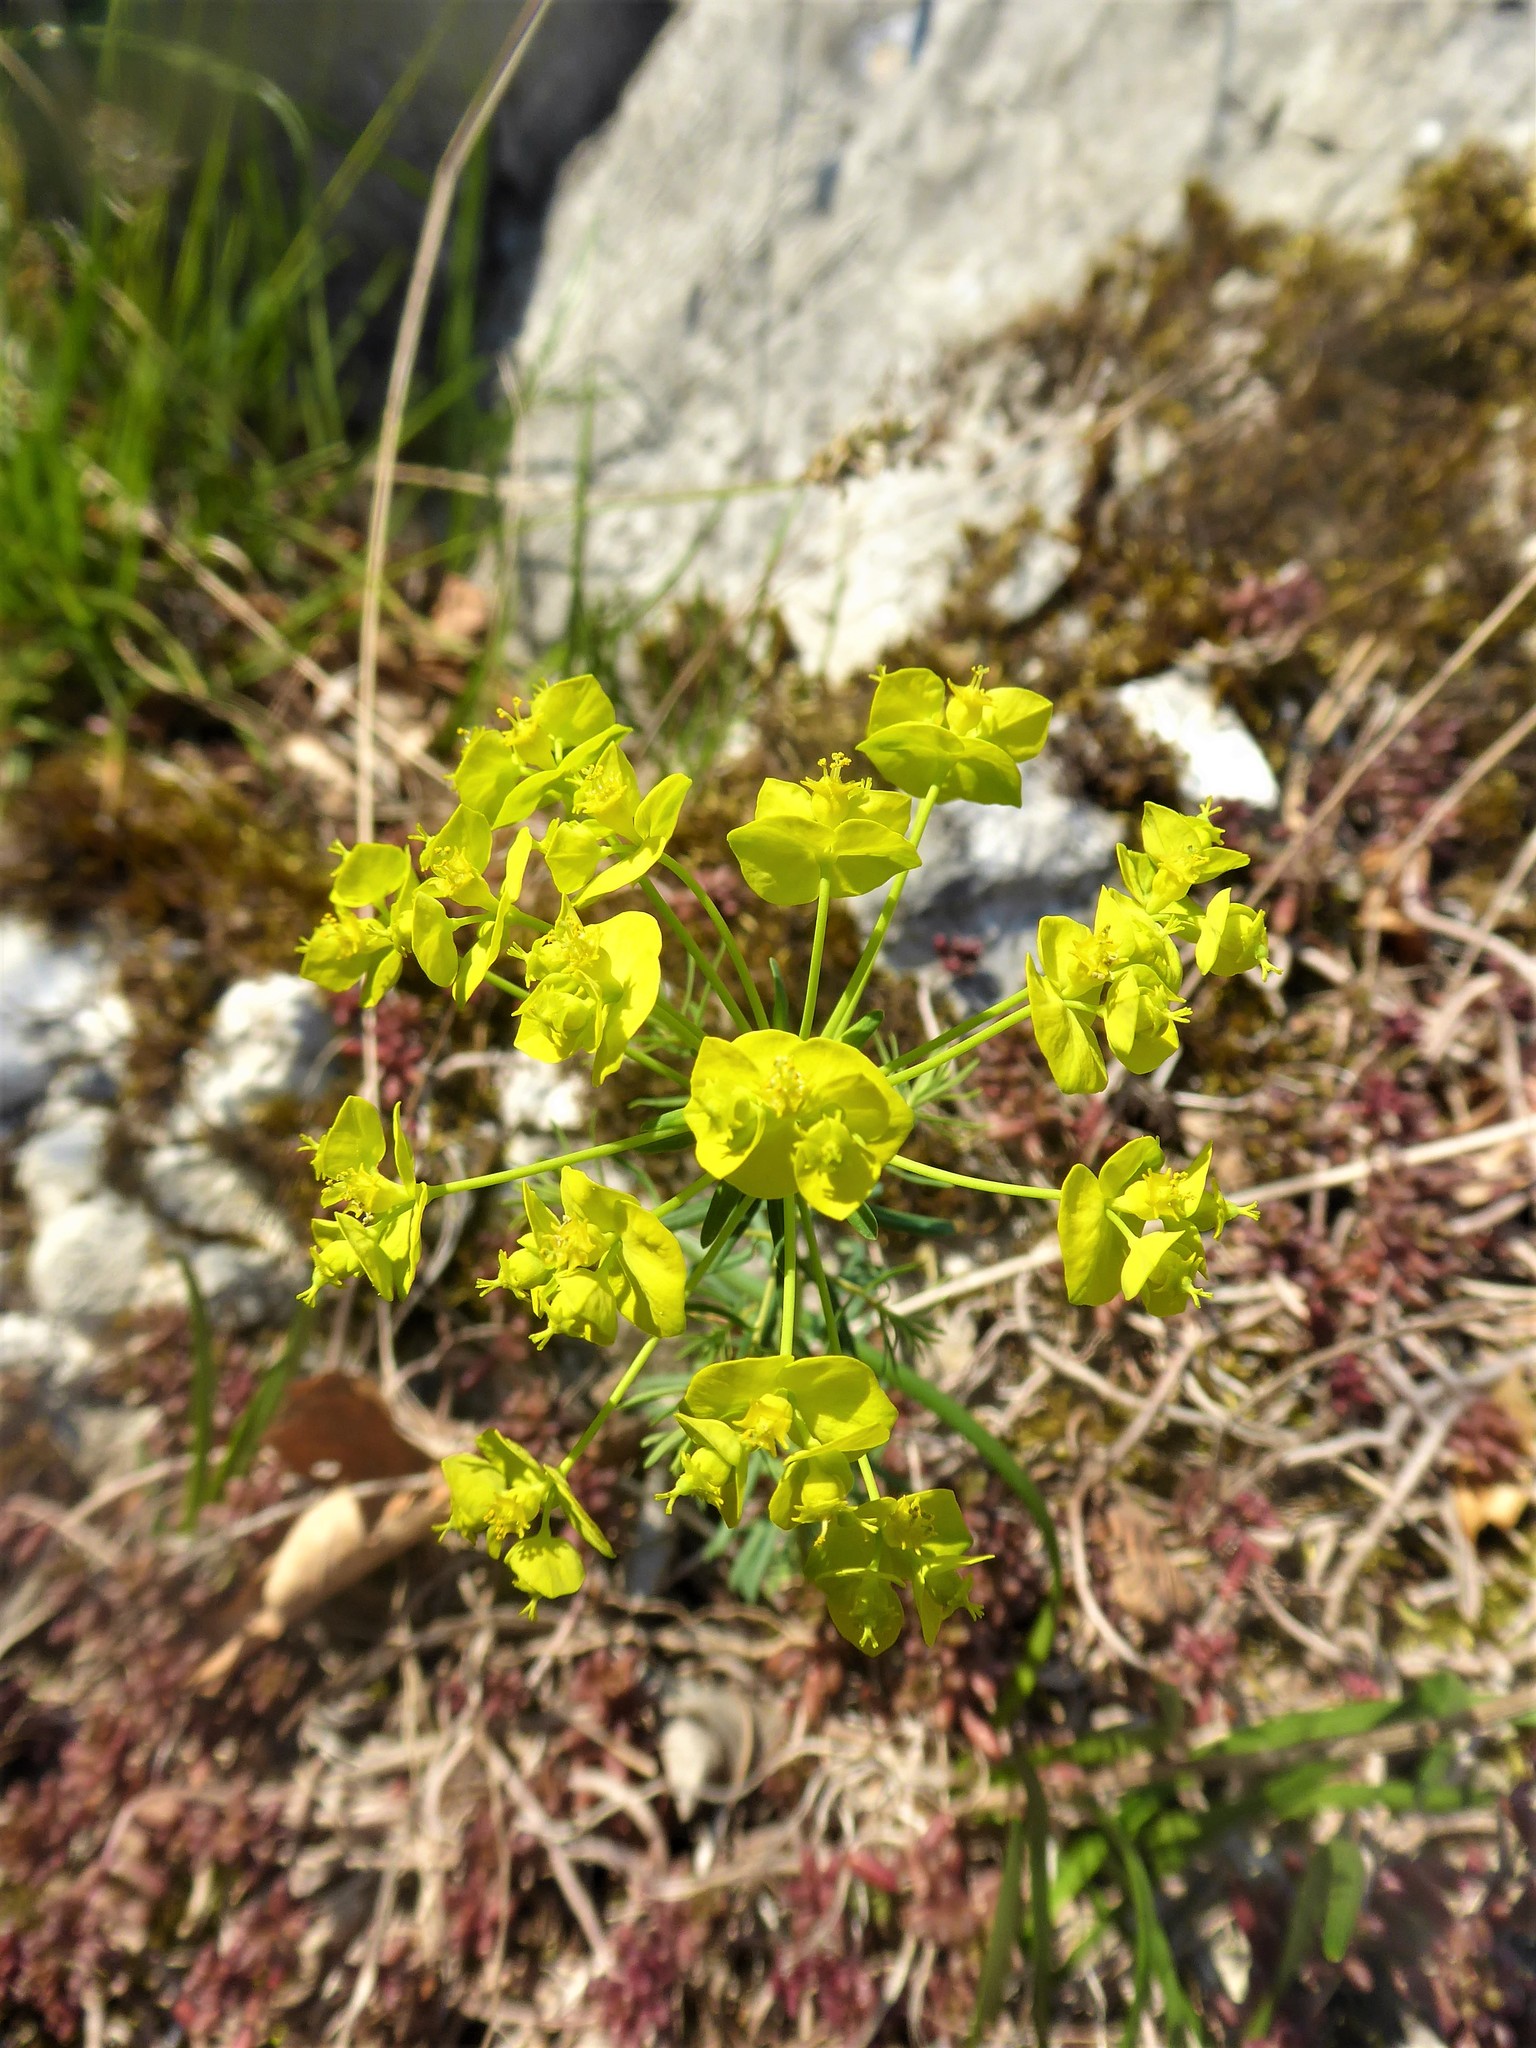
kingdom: Plantae
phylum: Tracheophyta
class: Magnoliopsida
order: Malpighiales
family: Euphorbiaceae
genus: Euphorbia
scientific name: Euphorbia cyparissias
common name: Cypress spurge
